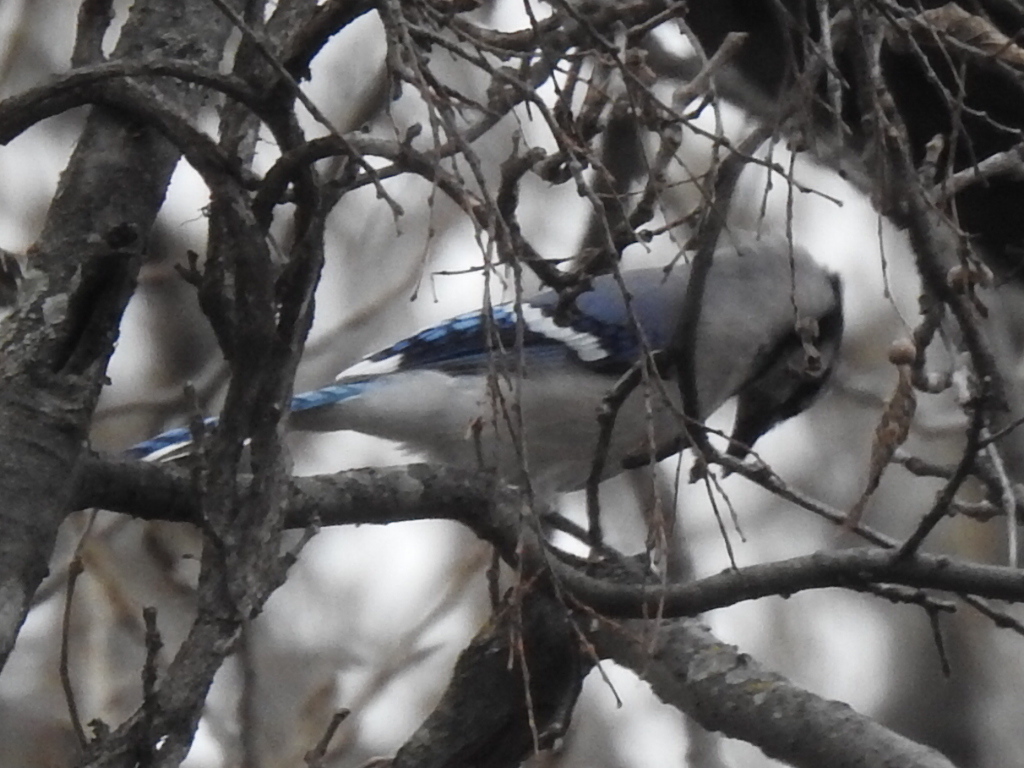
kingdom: Animalia
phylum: Chordata
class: Aves
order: Passeriformes
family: Corvidae
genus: Cyanocitta
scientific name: Cyanocitta cristata
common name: Blue jay
